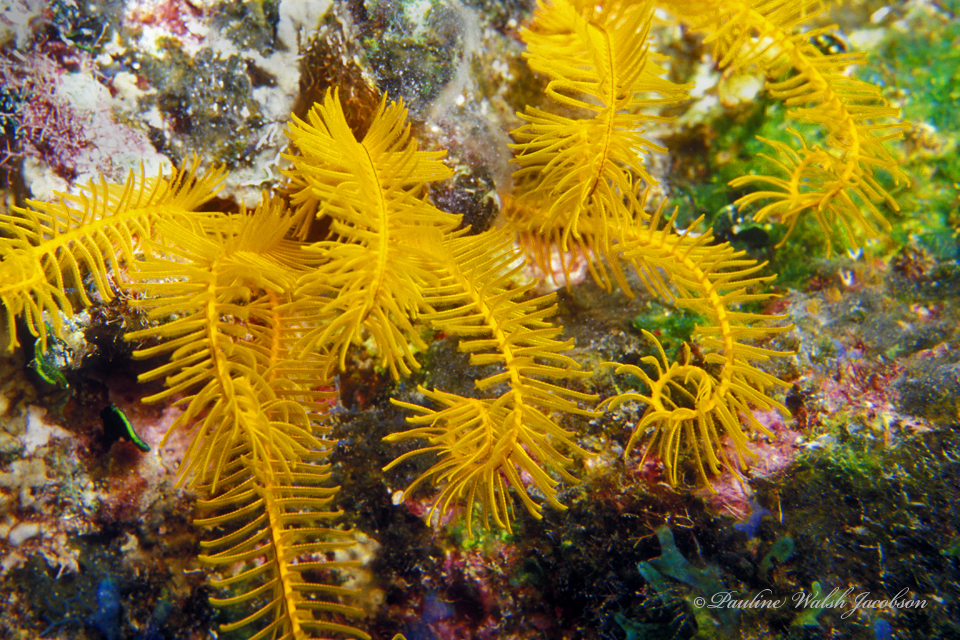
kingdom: Animalia
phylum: Echinodermata
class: Crinoidea
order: Comatulida
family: Comatulidae
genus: Davidaster
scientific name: Davidaster rubiginosus
